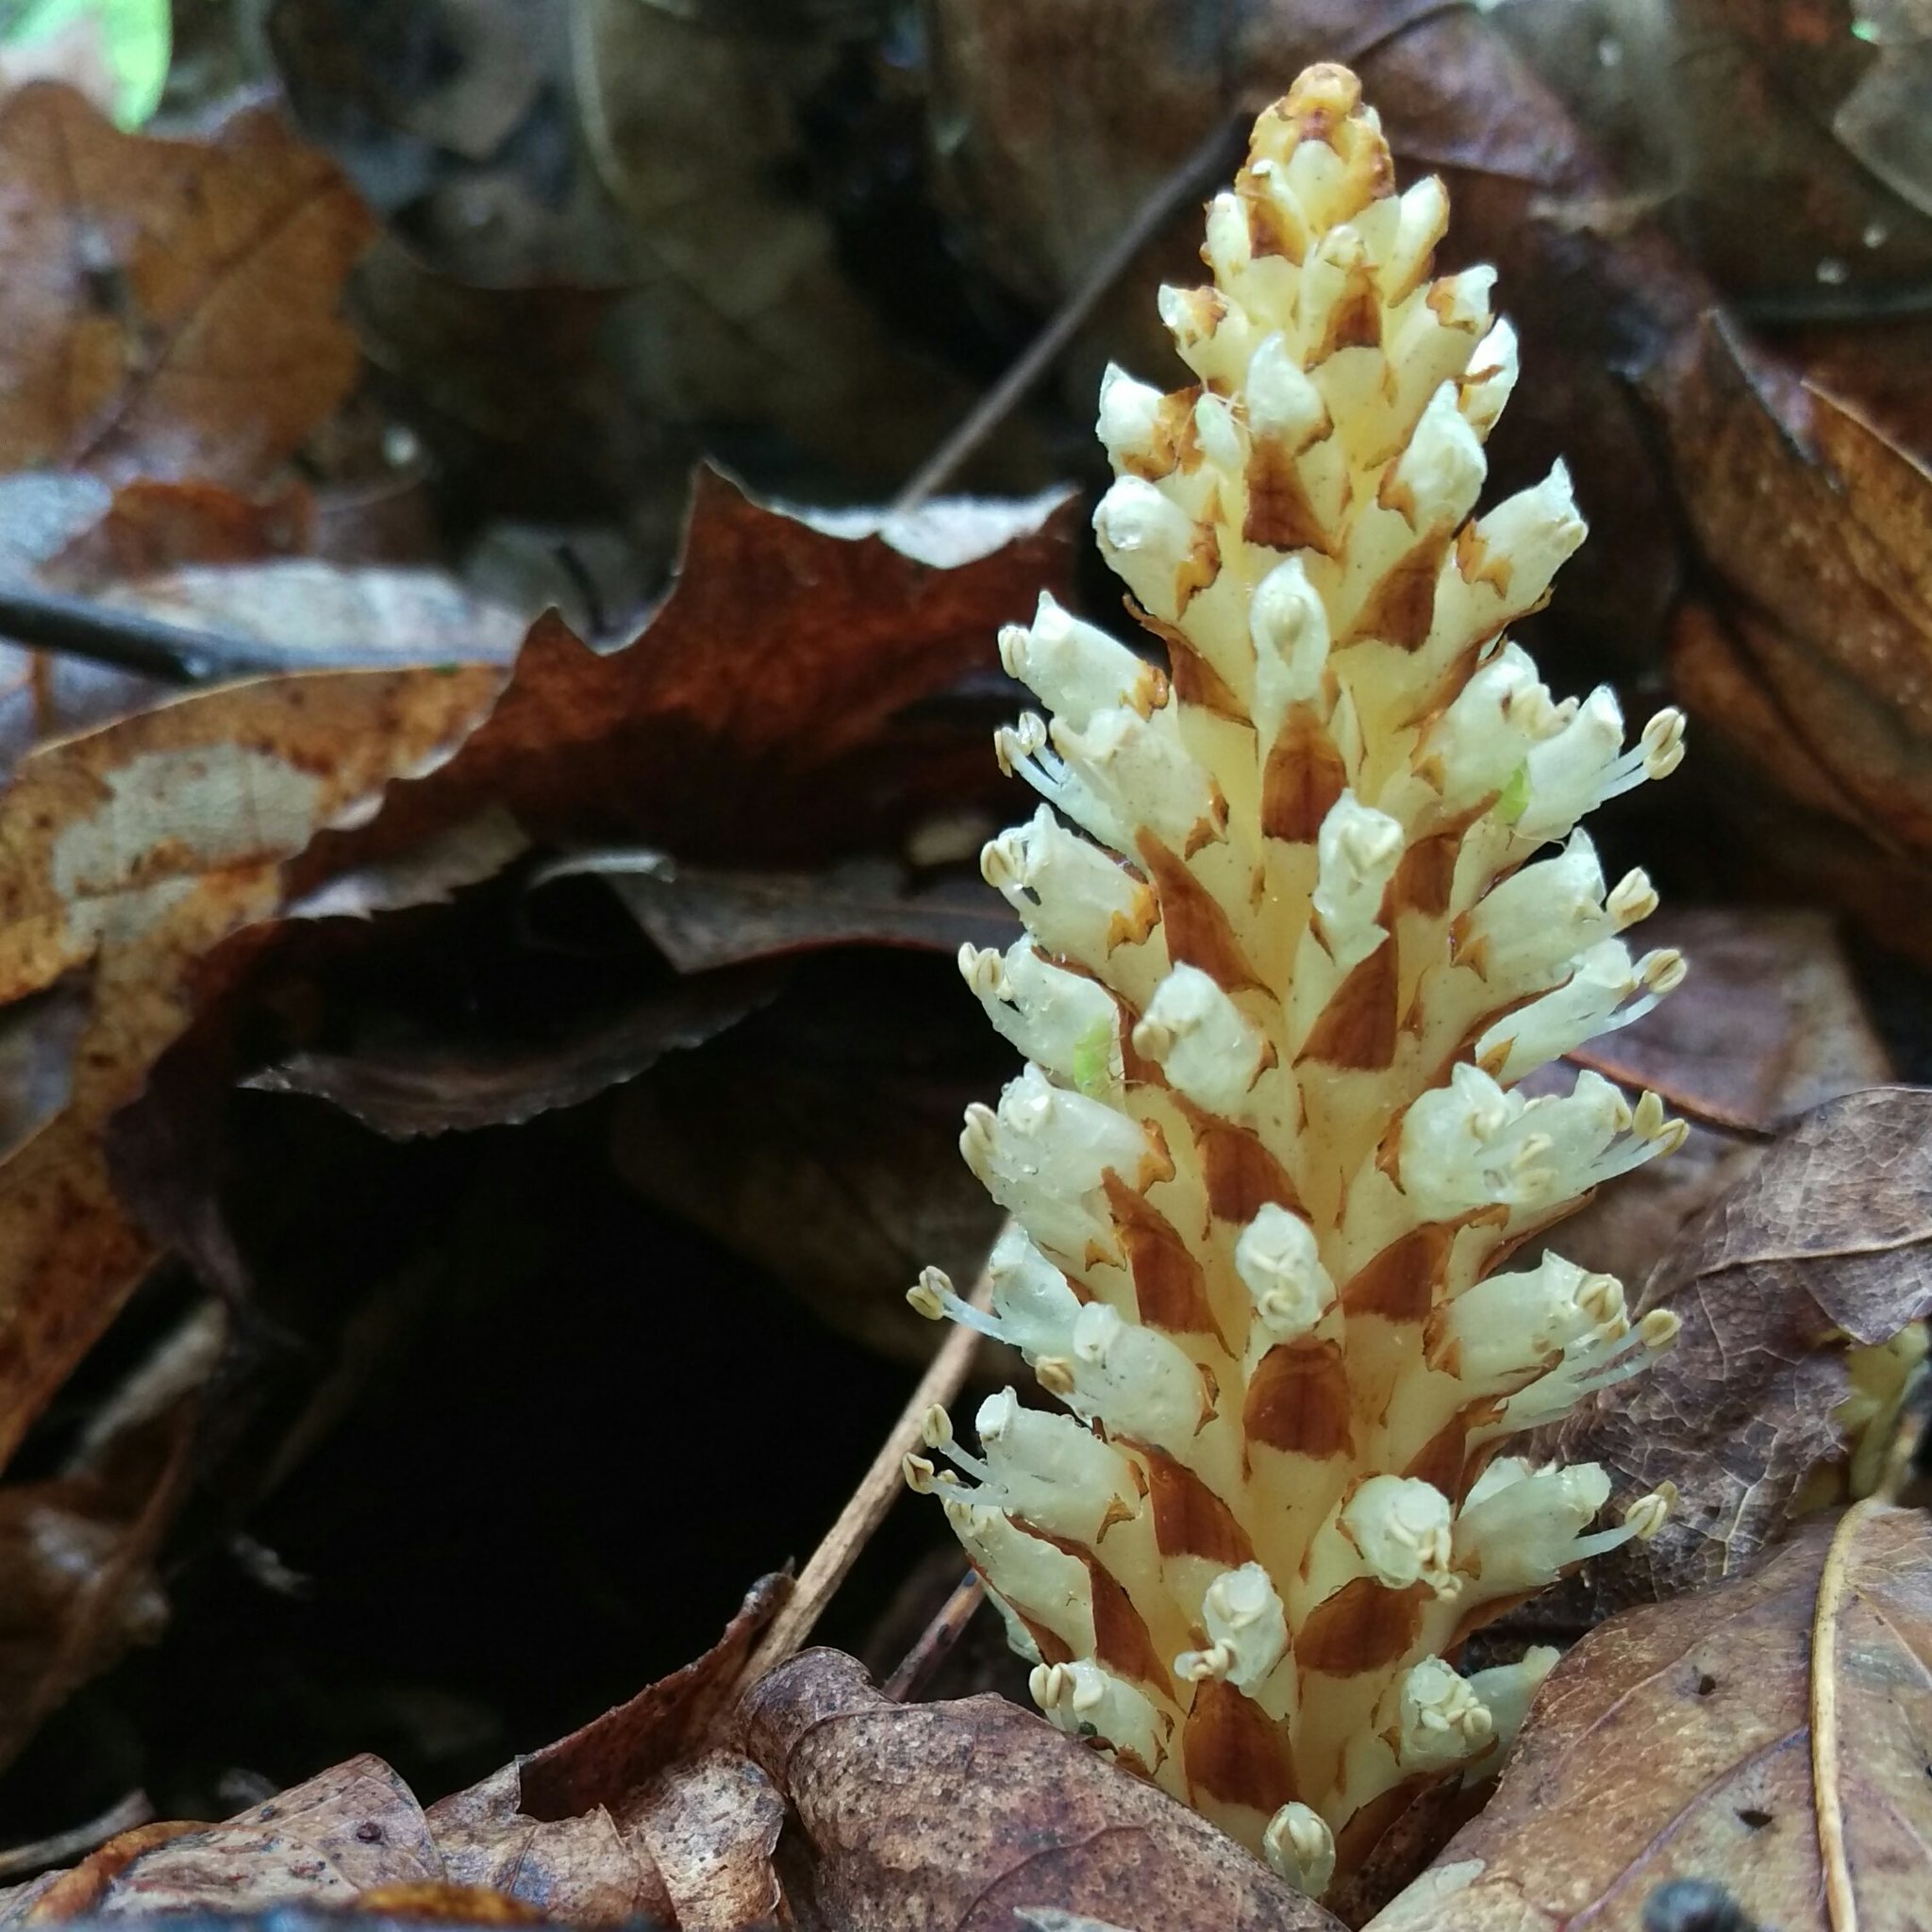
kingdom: Plantae
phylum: Tracheophyta
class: Magnoliopsida
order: Lamiales
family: Orobanchaceae
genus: Conopholis
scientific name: Conopholis americana
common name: American cancer-root
